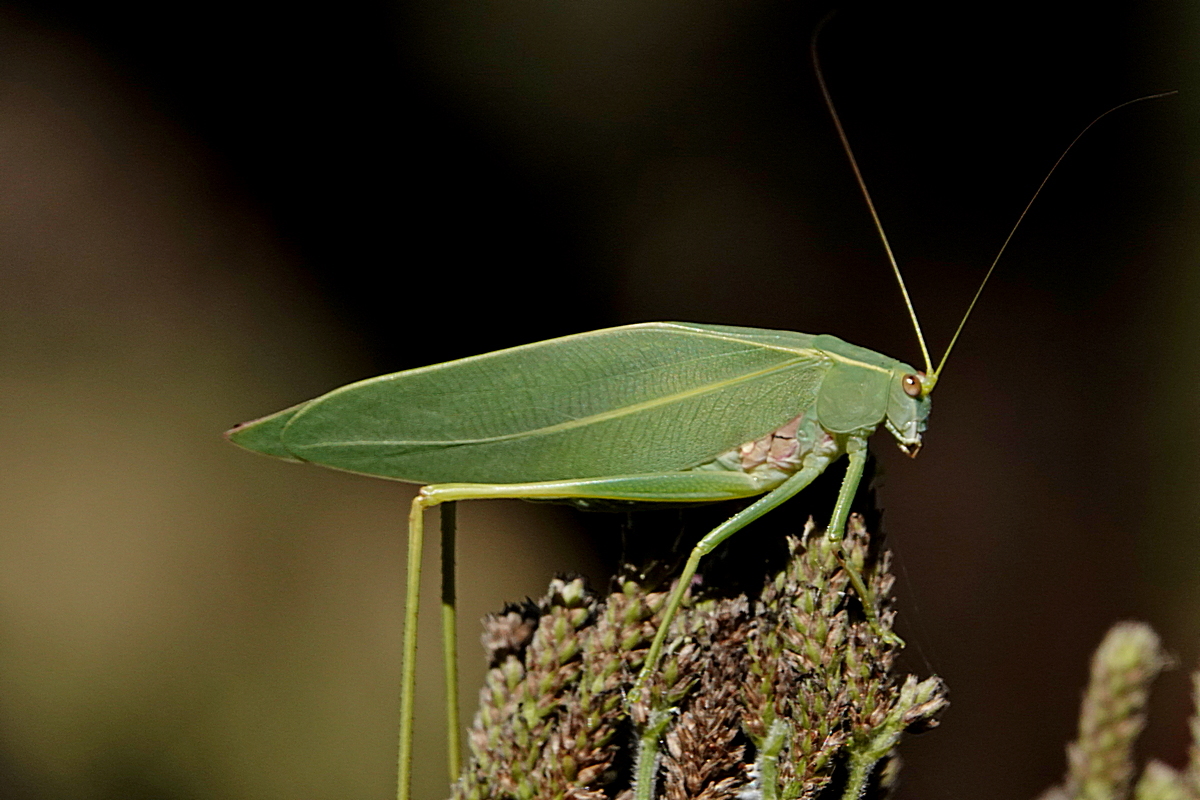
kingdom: Animalia
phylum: Arthropoda
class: Insecta
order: Orthoptera
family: Tettigoniidae
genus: Torbia
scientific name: Torbia viridissima
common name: Non-predaceous gum leaf katydid
